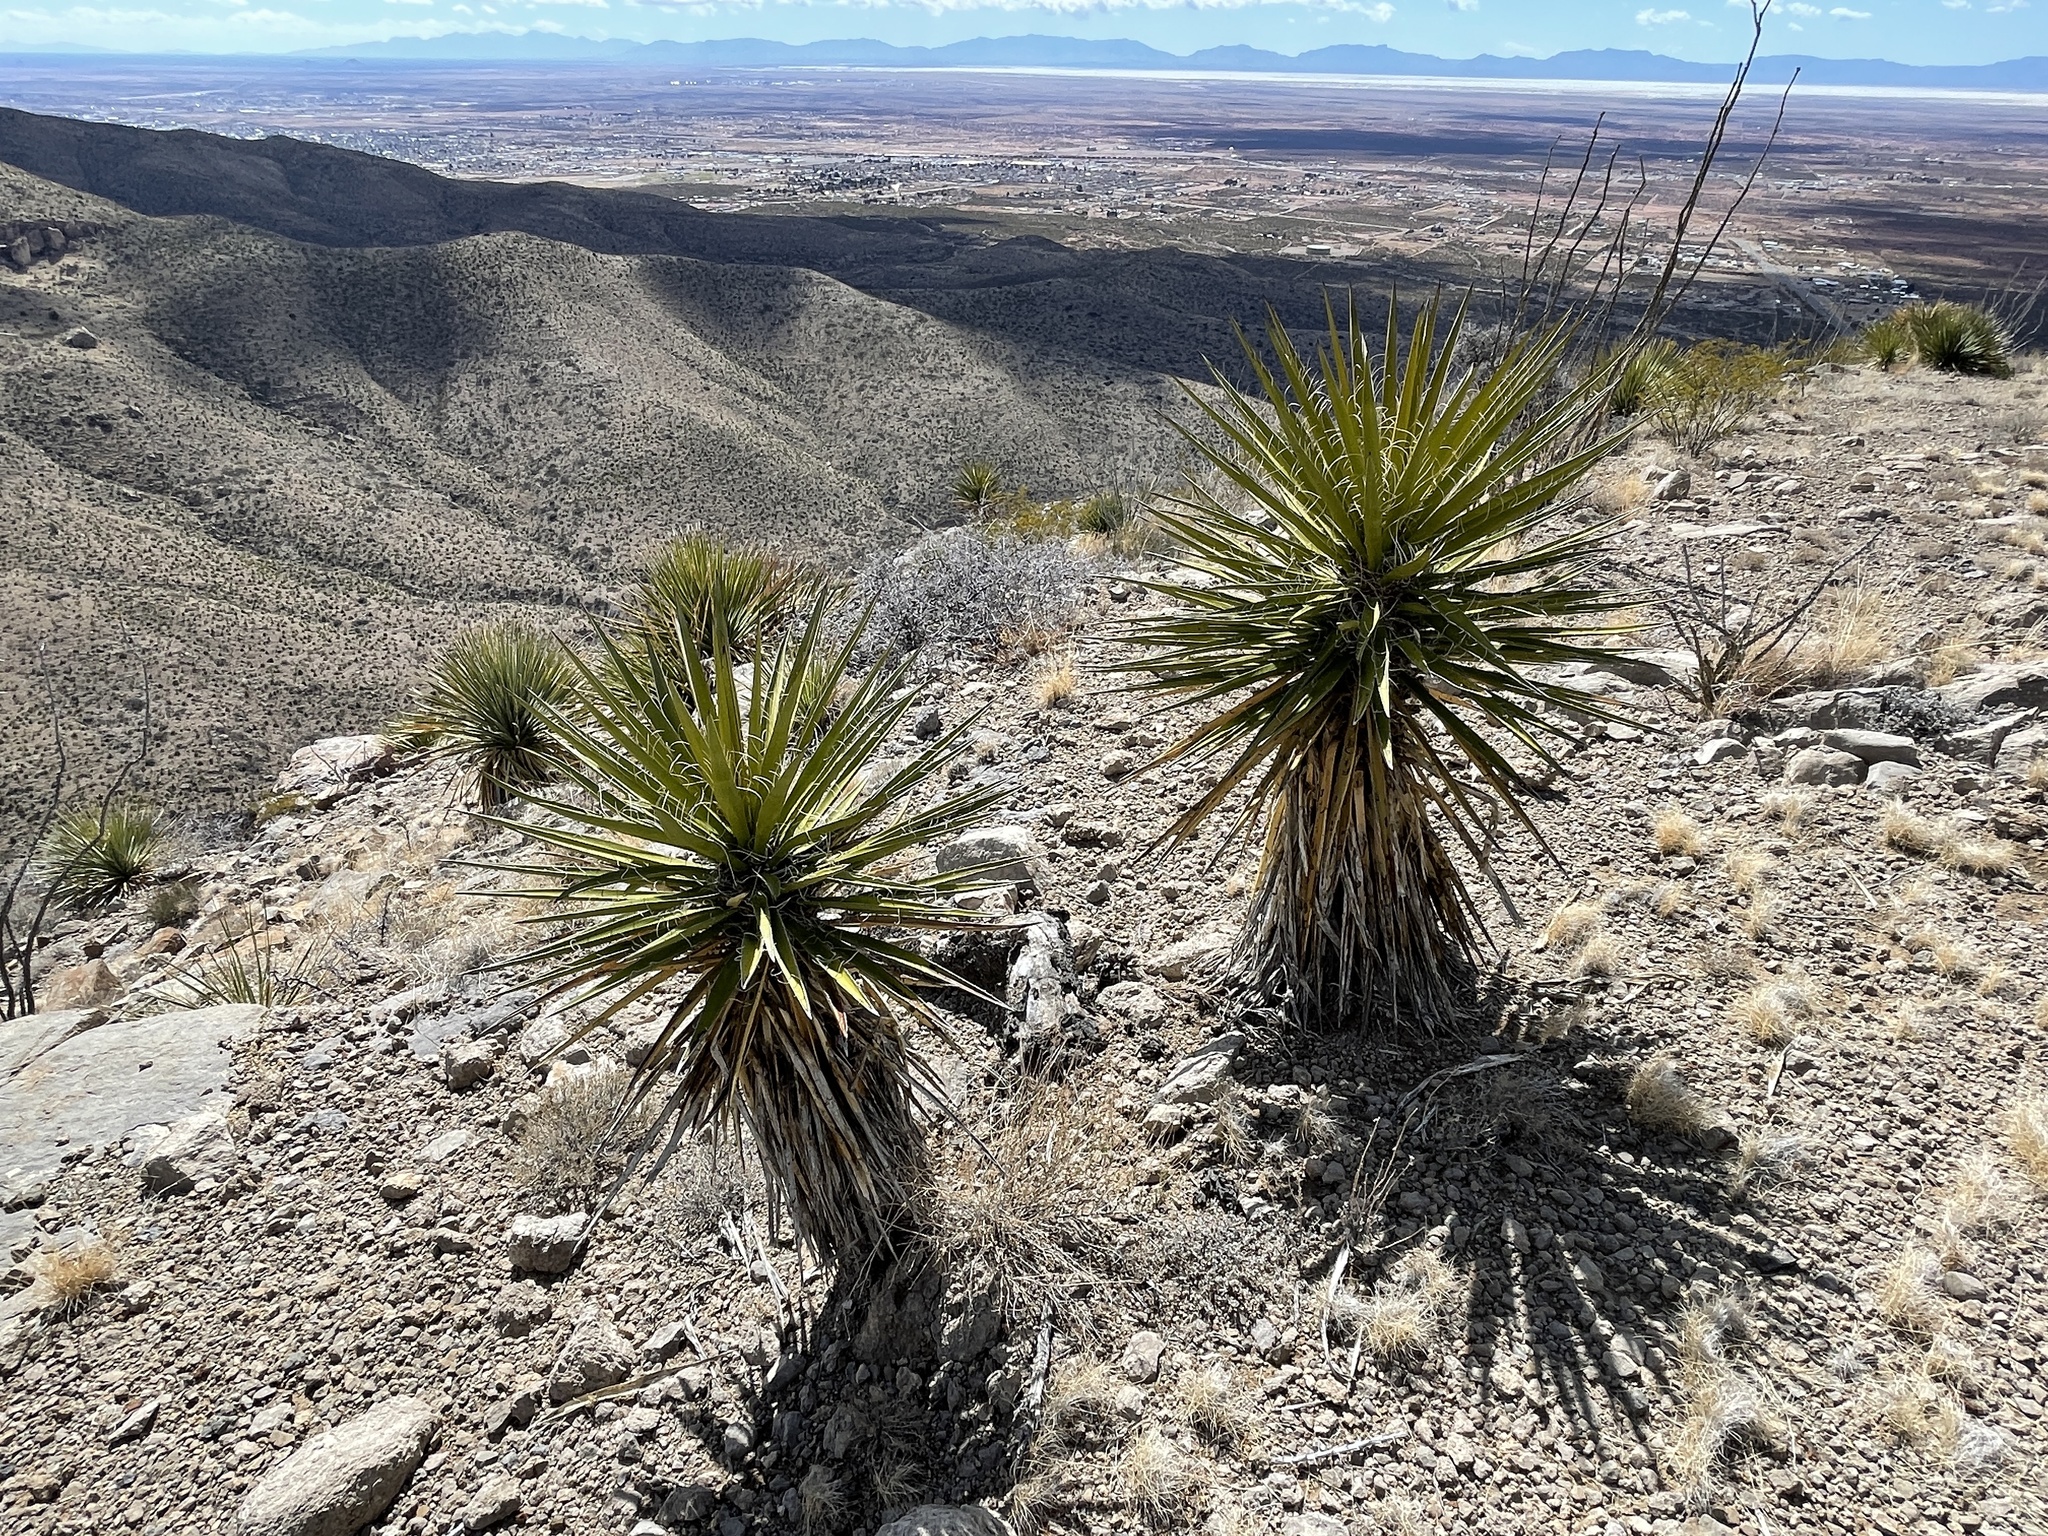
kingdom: Plantae
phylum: Tracheophyta
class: Liliopsida
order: Asparagales
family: Asparagaceae
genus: Yucca
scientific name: Yucca treculiana
